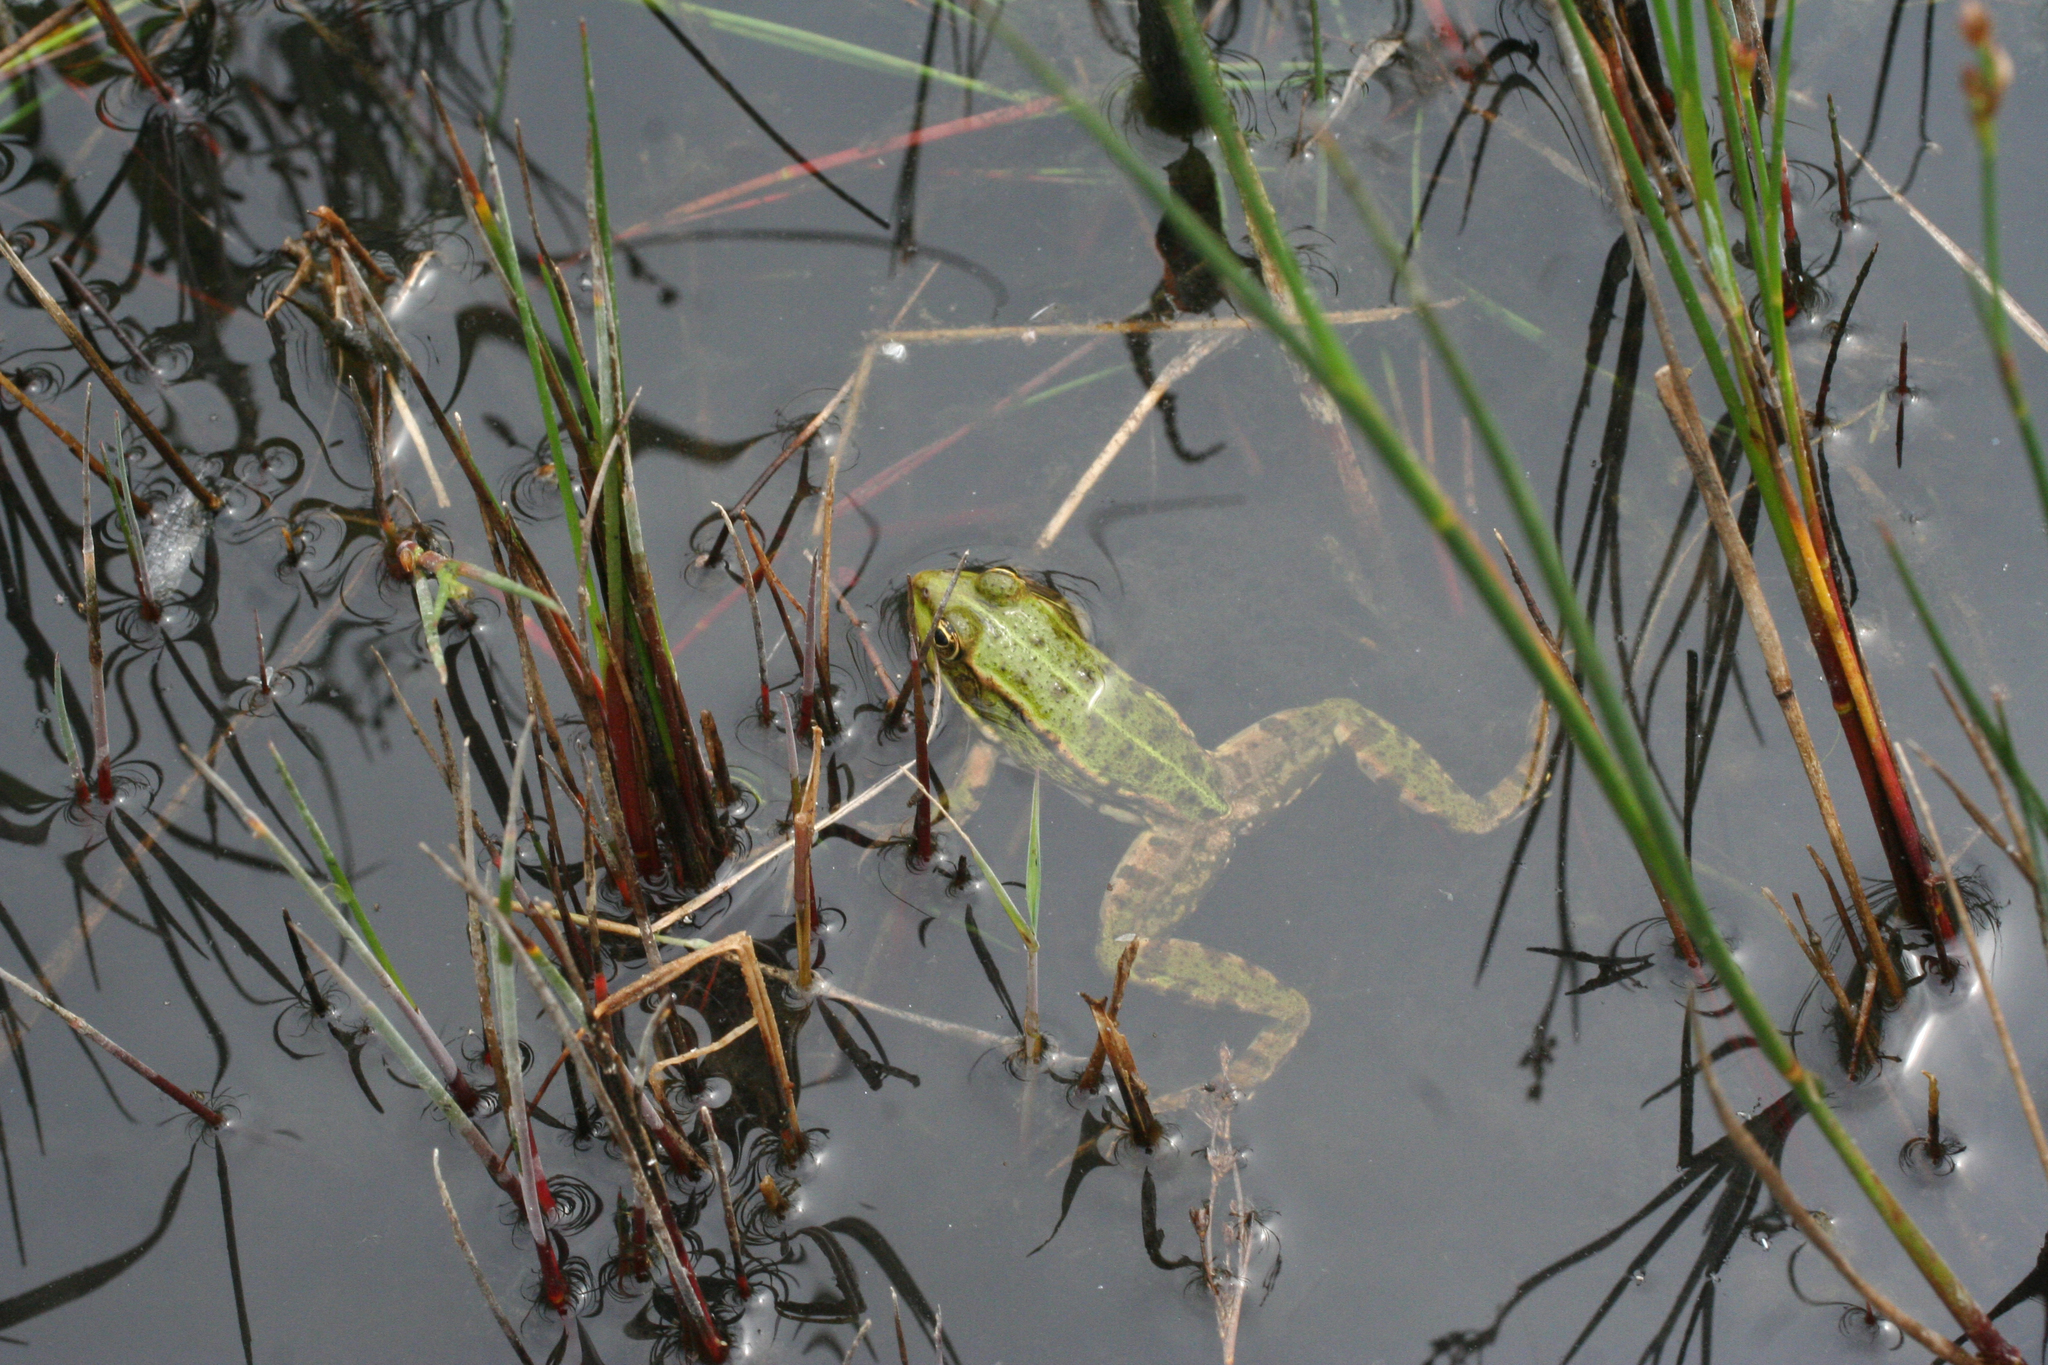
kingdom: Animalia
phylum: Chordata
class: Amphibia
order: Anura
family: Ranidae
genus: Pelophylax
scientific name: Pelophylax ridibundus
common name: Marsh frog
